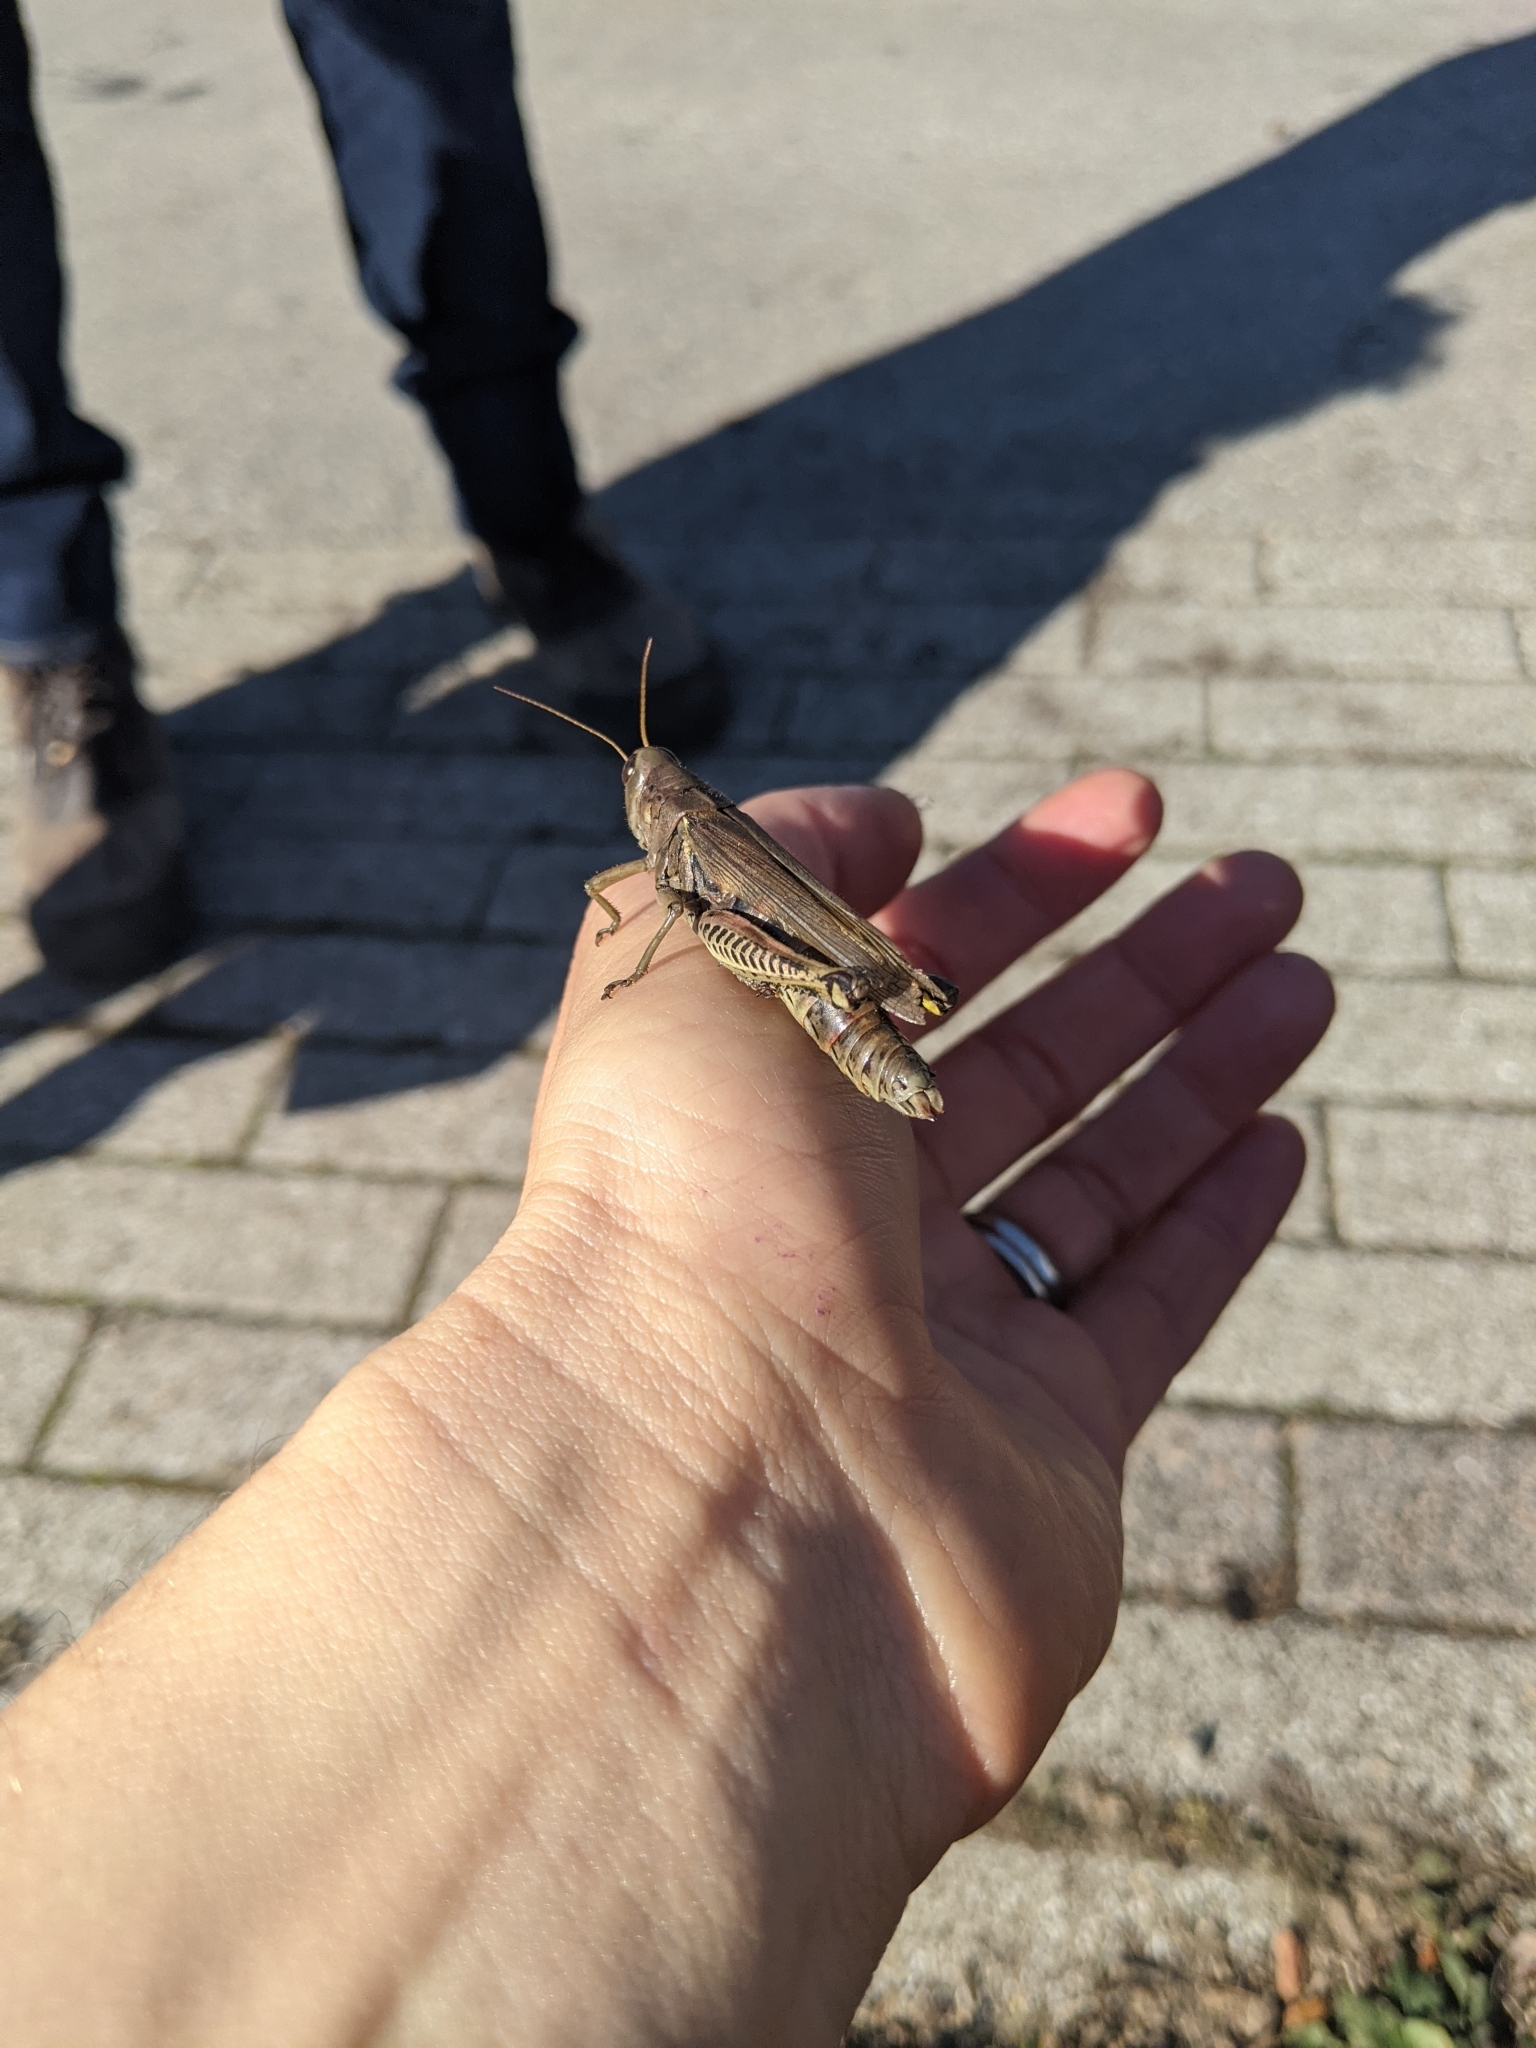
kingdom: Animalia
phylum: Arthropoda
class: Insecta
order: Orthoptera
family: Acrididae
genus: Melanoplus
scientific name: Melanoplus differentialis
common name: Differential grasshopper
